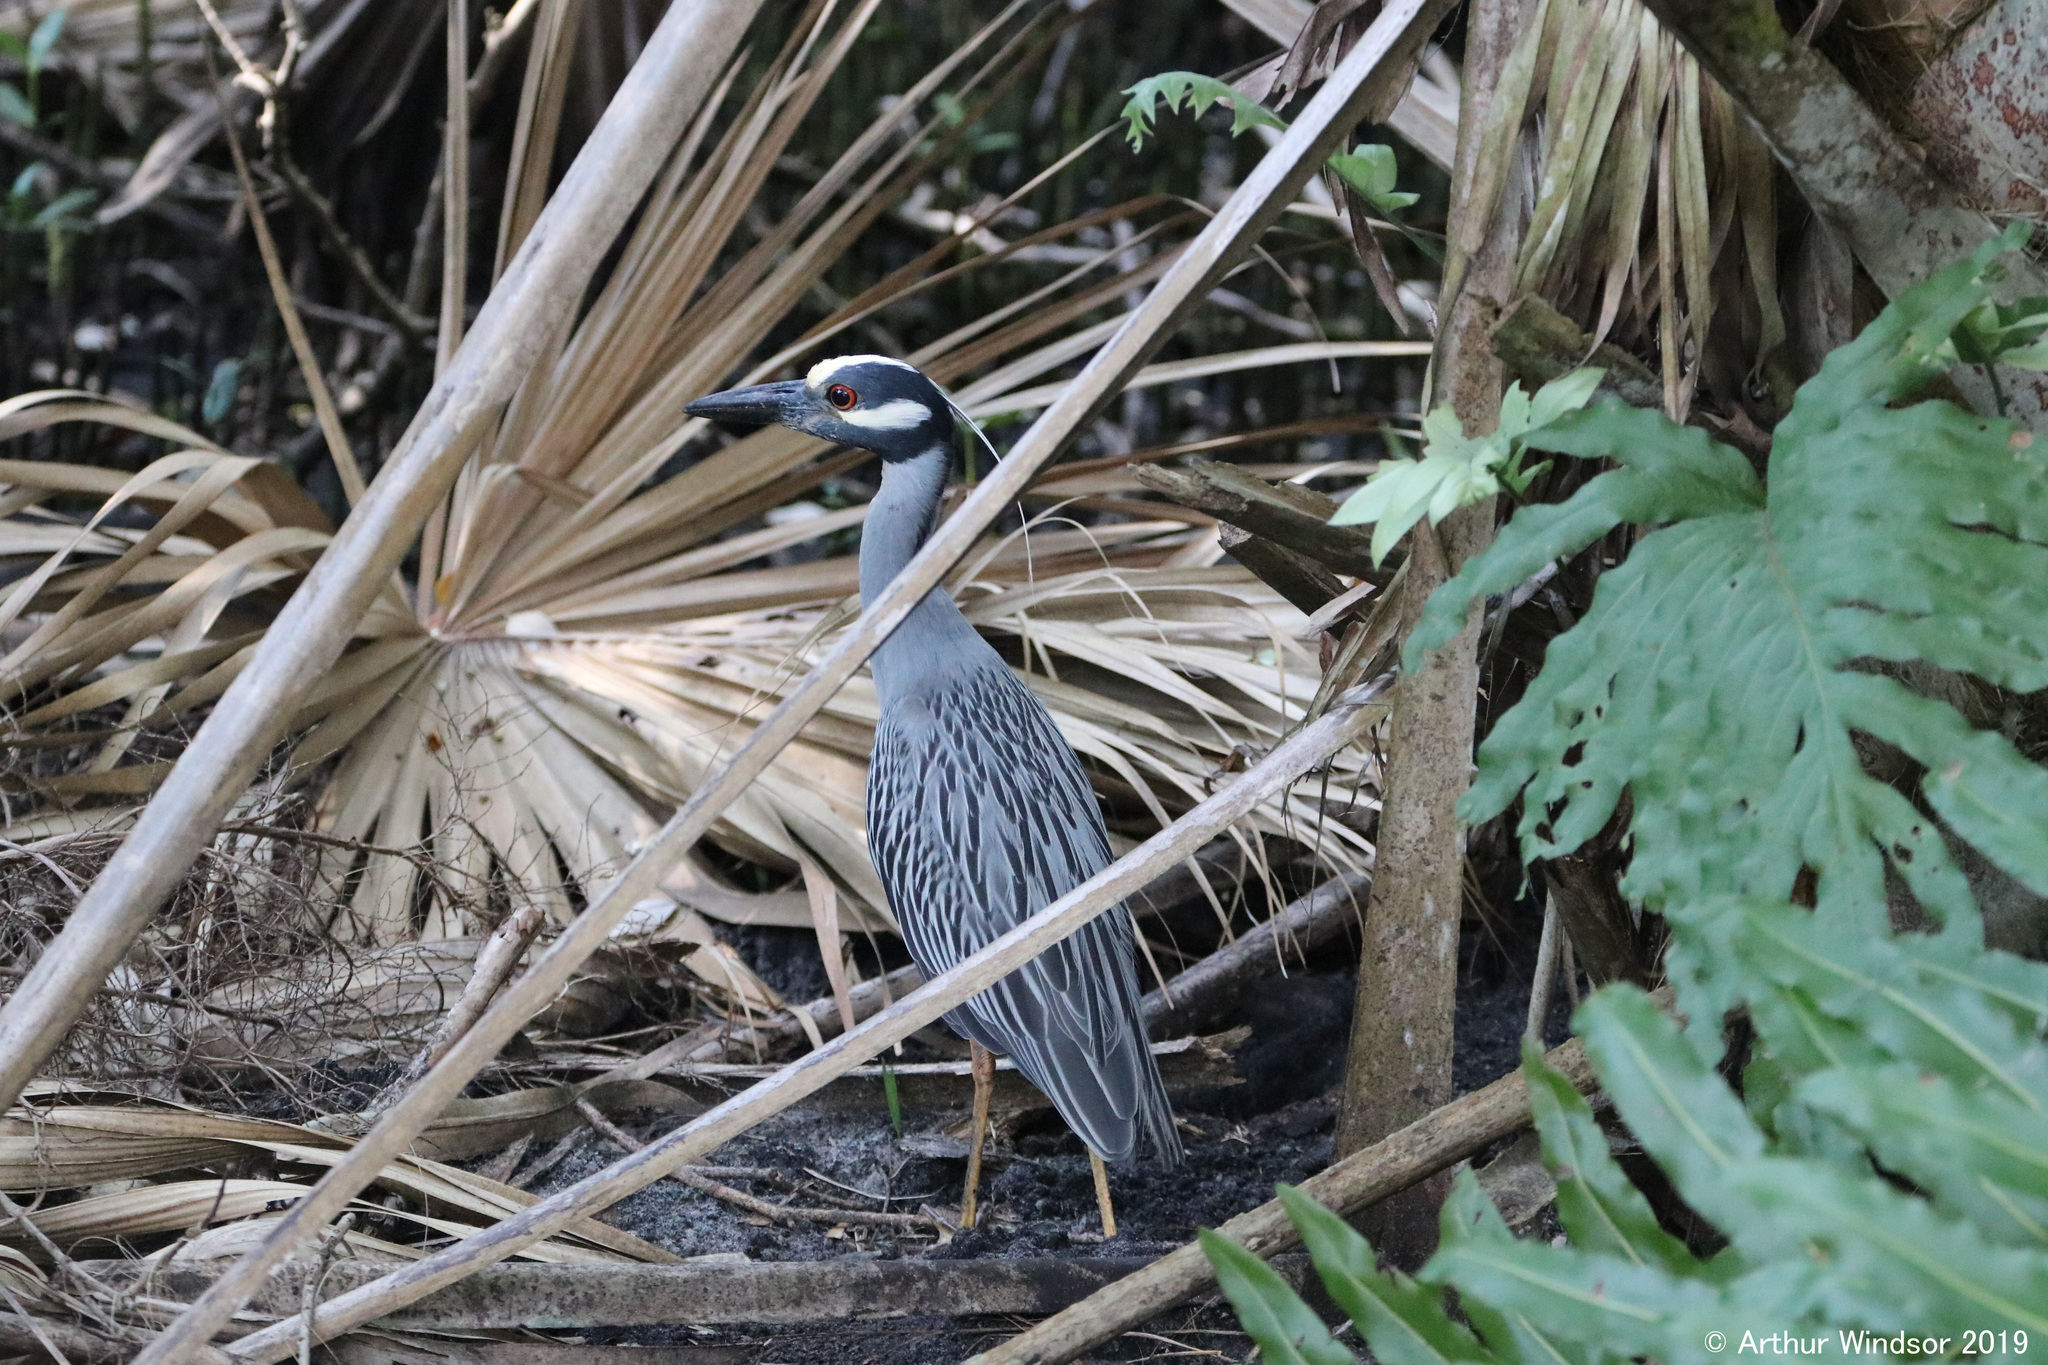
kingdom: Animalia
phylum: Chordata
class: Aves
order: Pelecaniformes
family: Ardeidae
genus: Nyctanassa
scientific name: Nyctanassa violacea
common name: Yellow-crowned night heron
